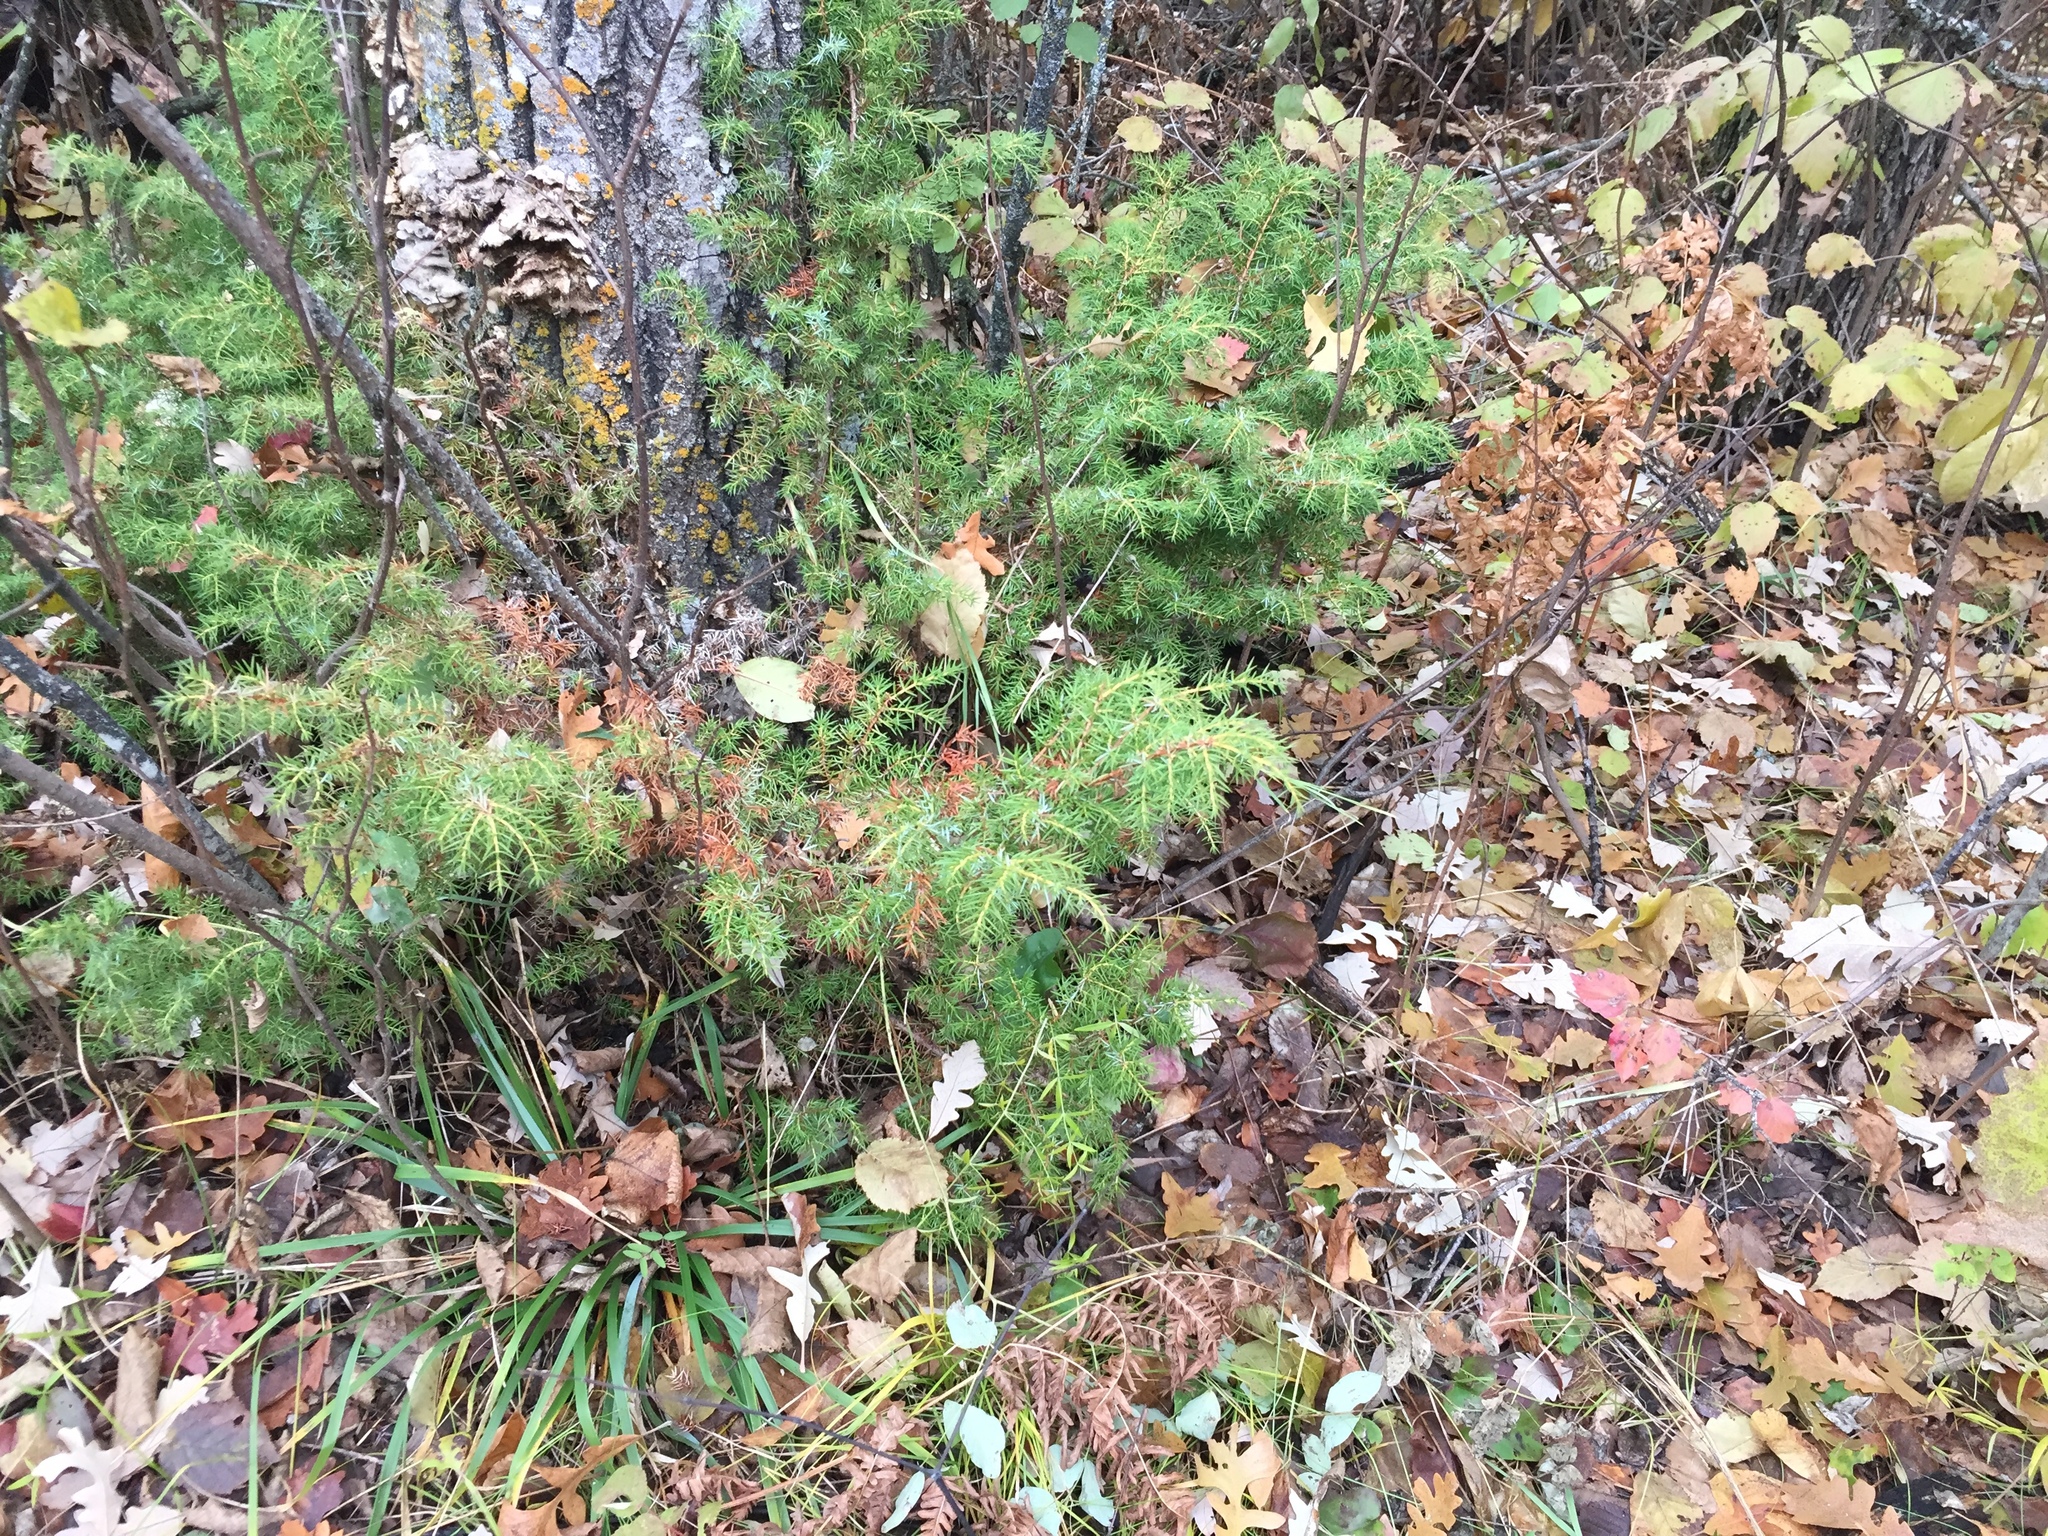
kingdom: Plantae
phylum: Tracheophyta
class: Pinopsida
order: Pinales
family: Cupressaceae
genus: Juniperus
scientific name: Juniperus communis
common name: Common juniper
